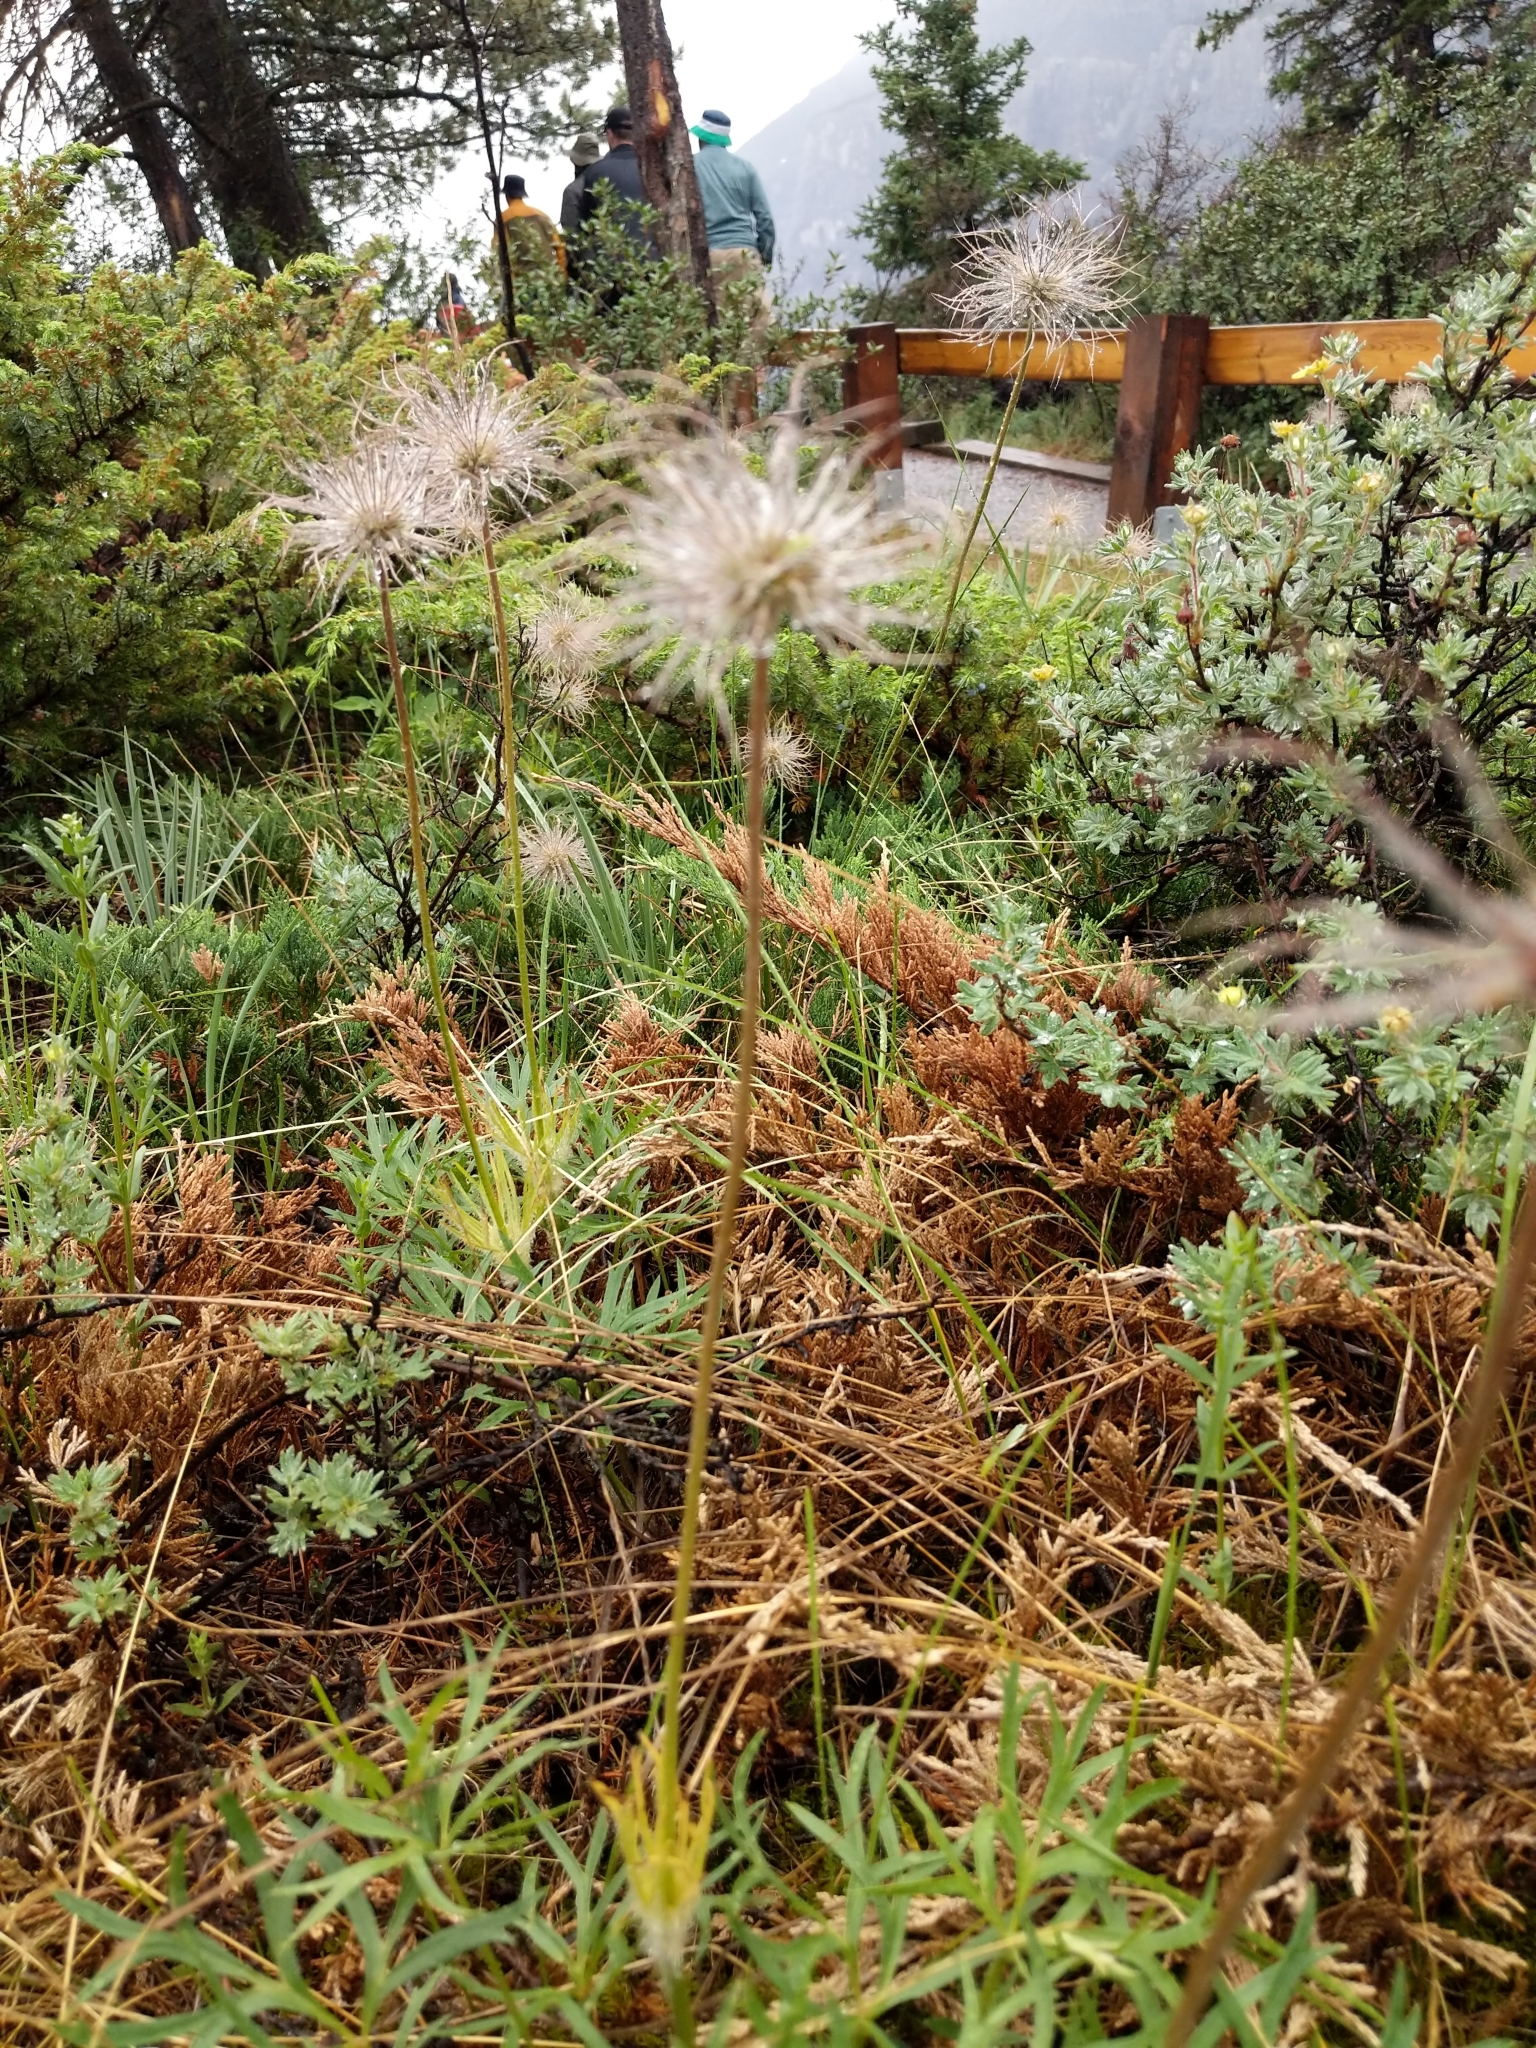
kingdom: Plantae
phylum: Tracheophyta
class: Magnoliopsida
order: Ranunculales
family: Ranunculaceae
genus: Pulsatilla
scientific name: Pulsatilla nuttalliana
